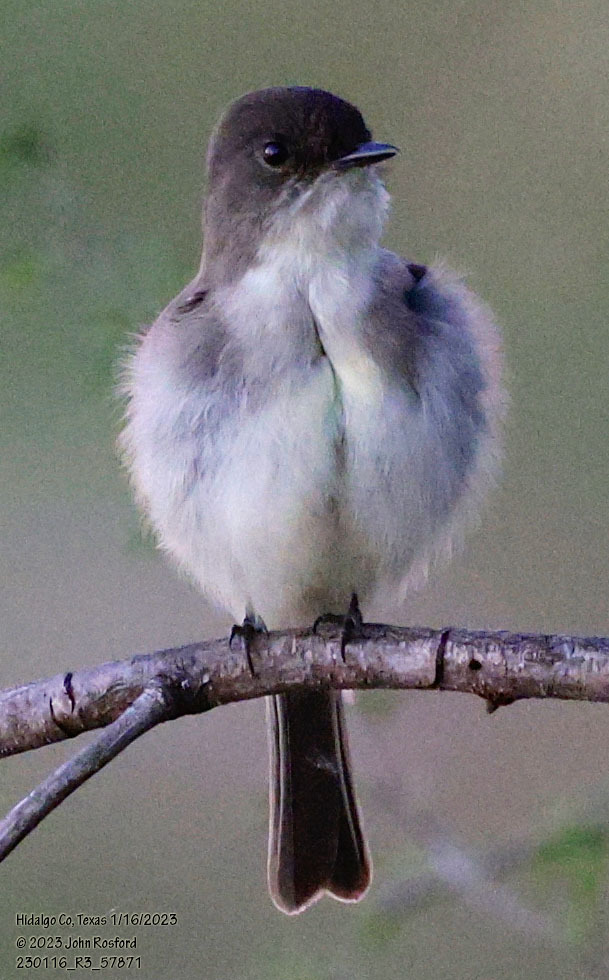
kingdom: Animalia
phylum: Chordata
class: Aves
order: Passeriformes
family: Tyrannidae
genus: Sayornis
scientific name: Sayornis phoebe
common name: Eastern phoebe
